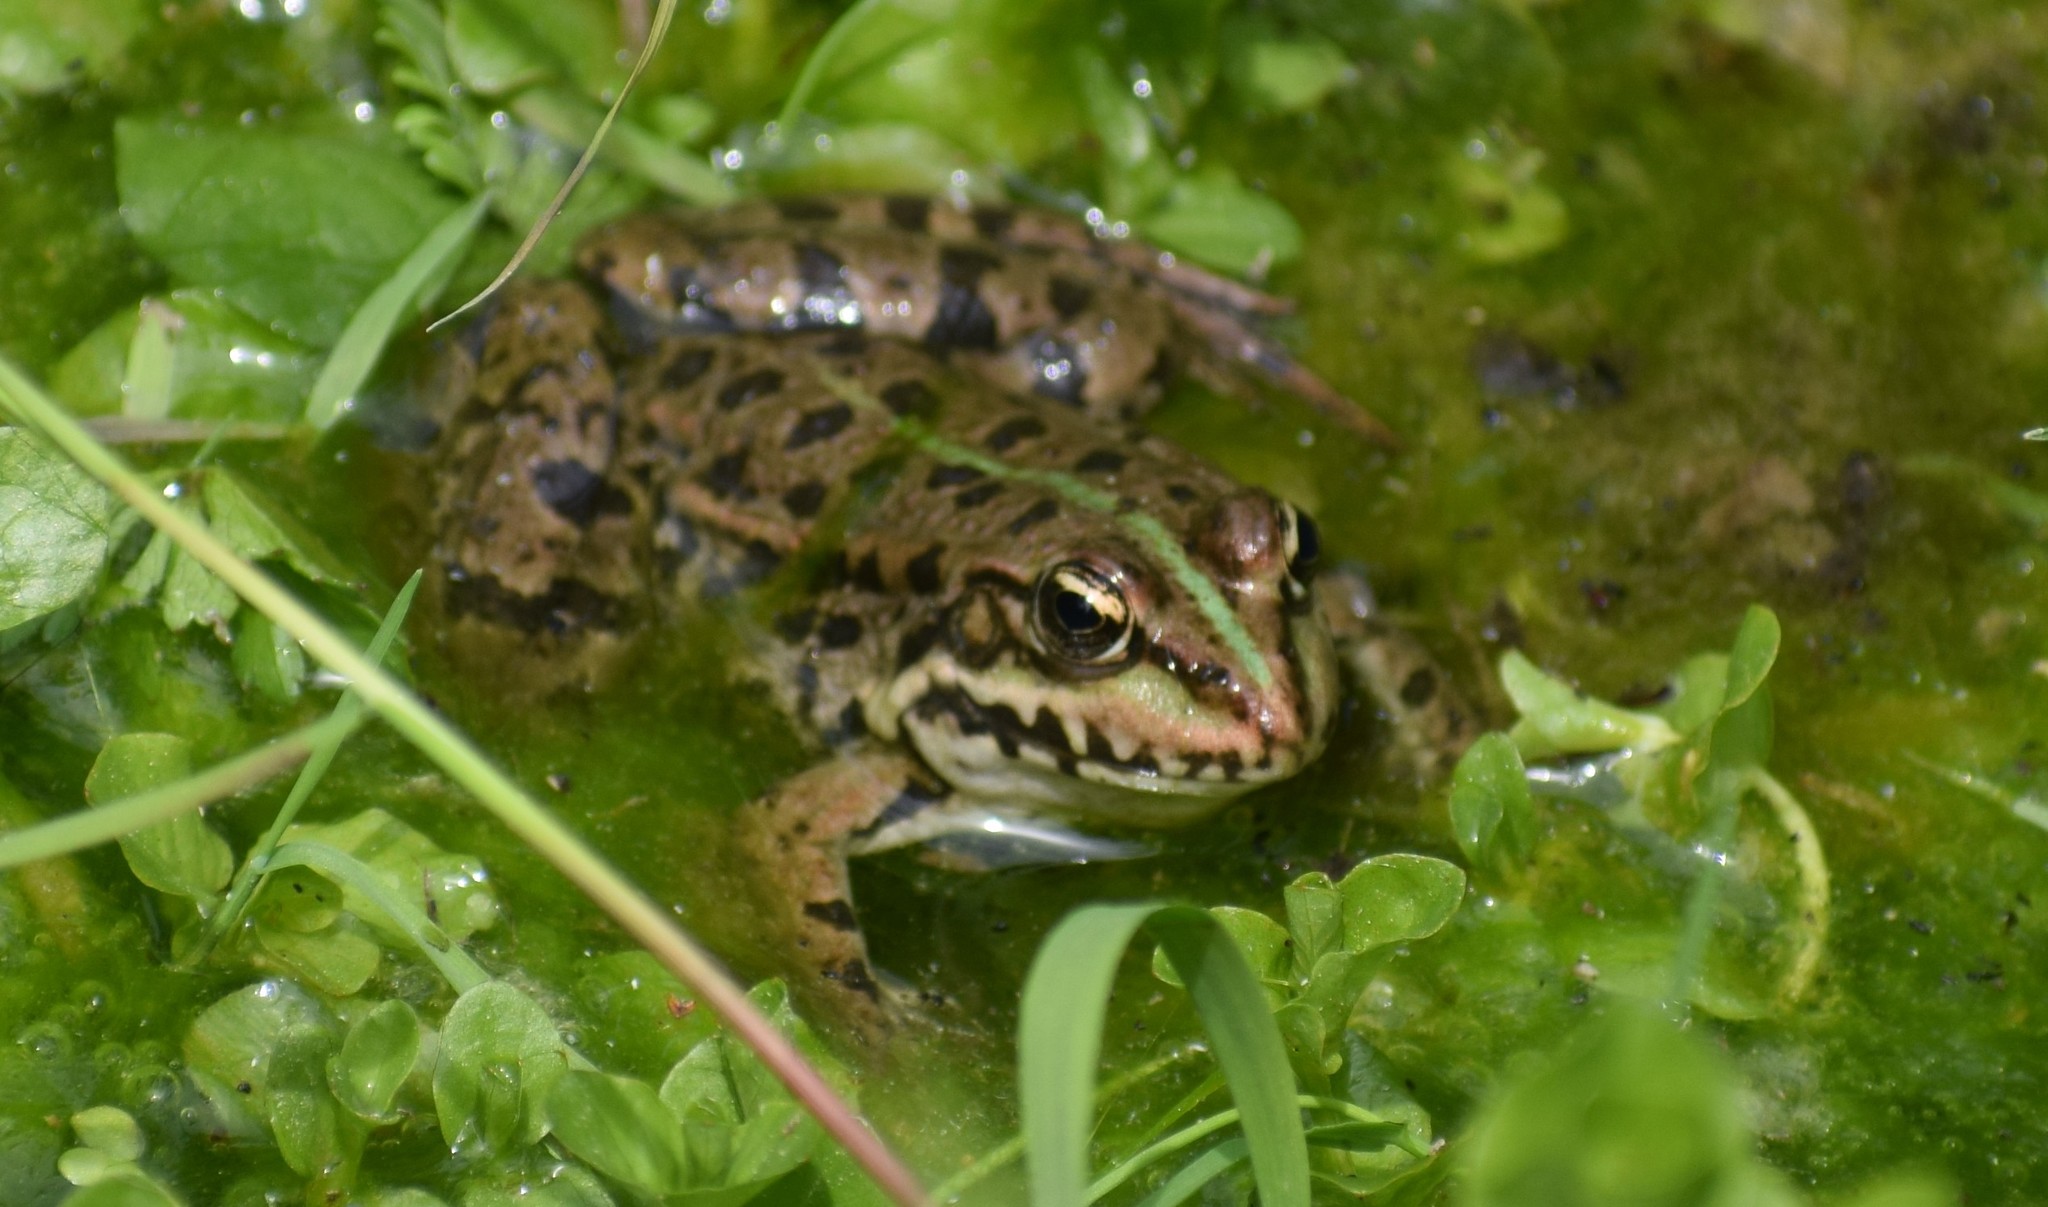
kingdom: Animalia
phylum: Chordata
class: Amphibia
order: Anura
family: Ranidae
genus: Pelophylax
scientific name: Pelophylax
